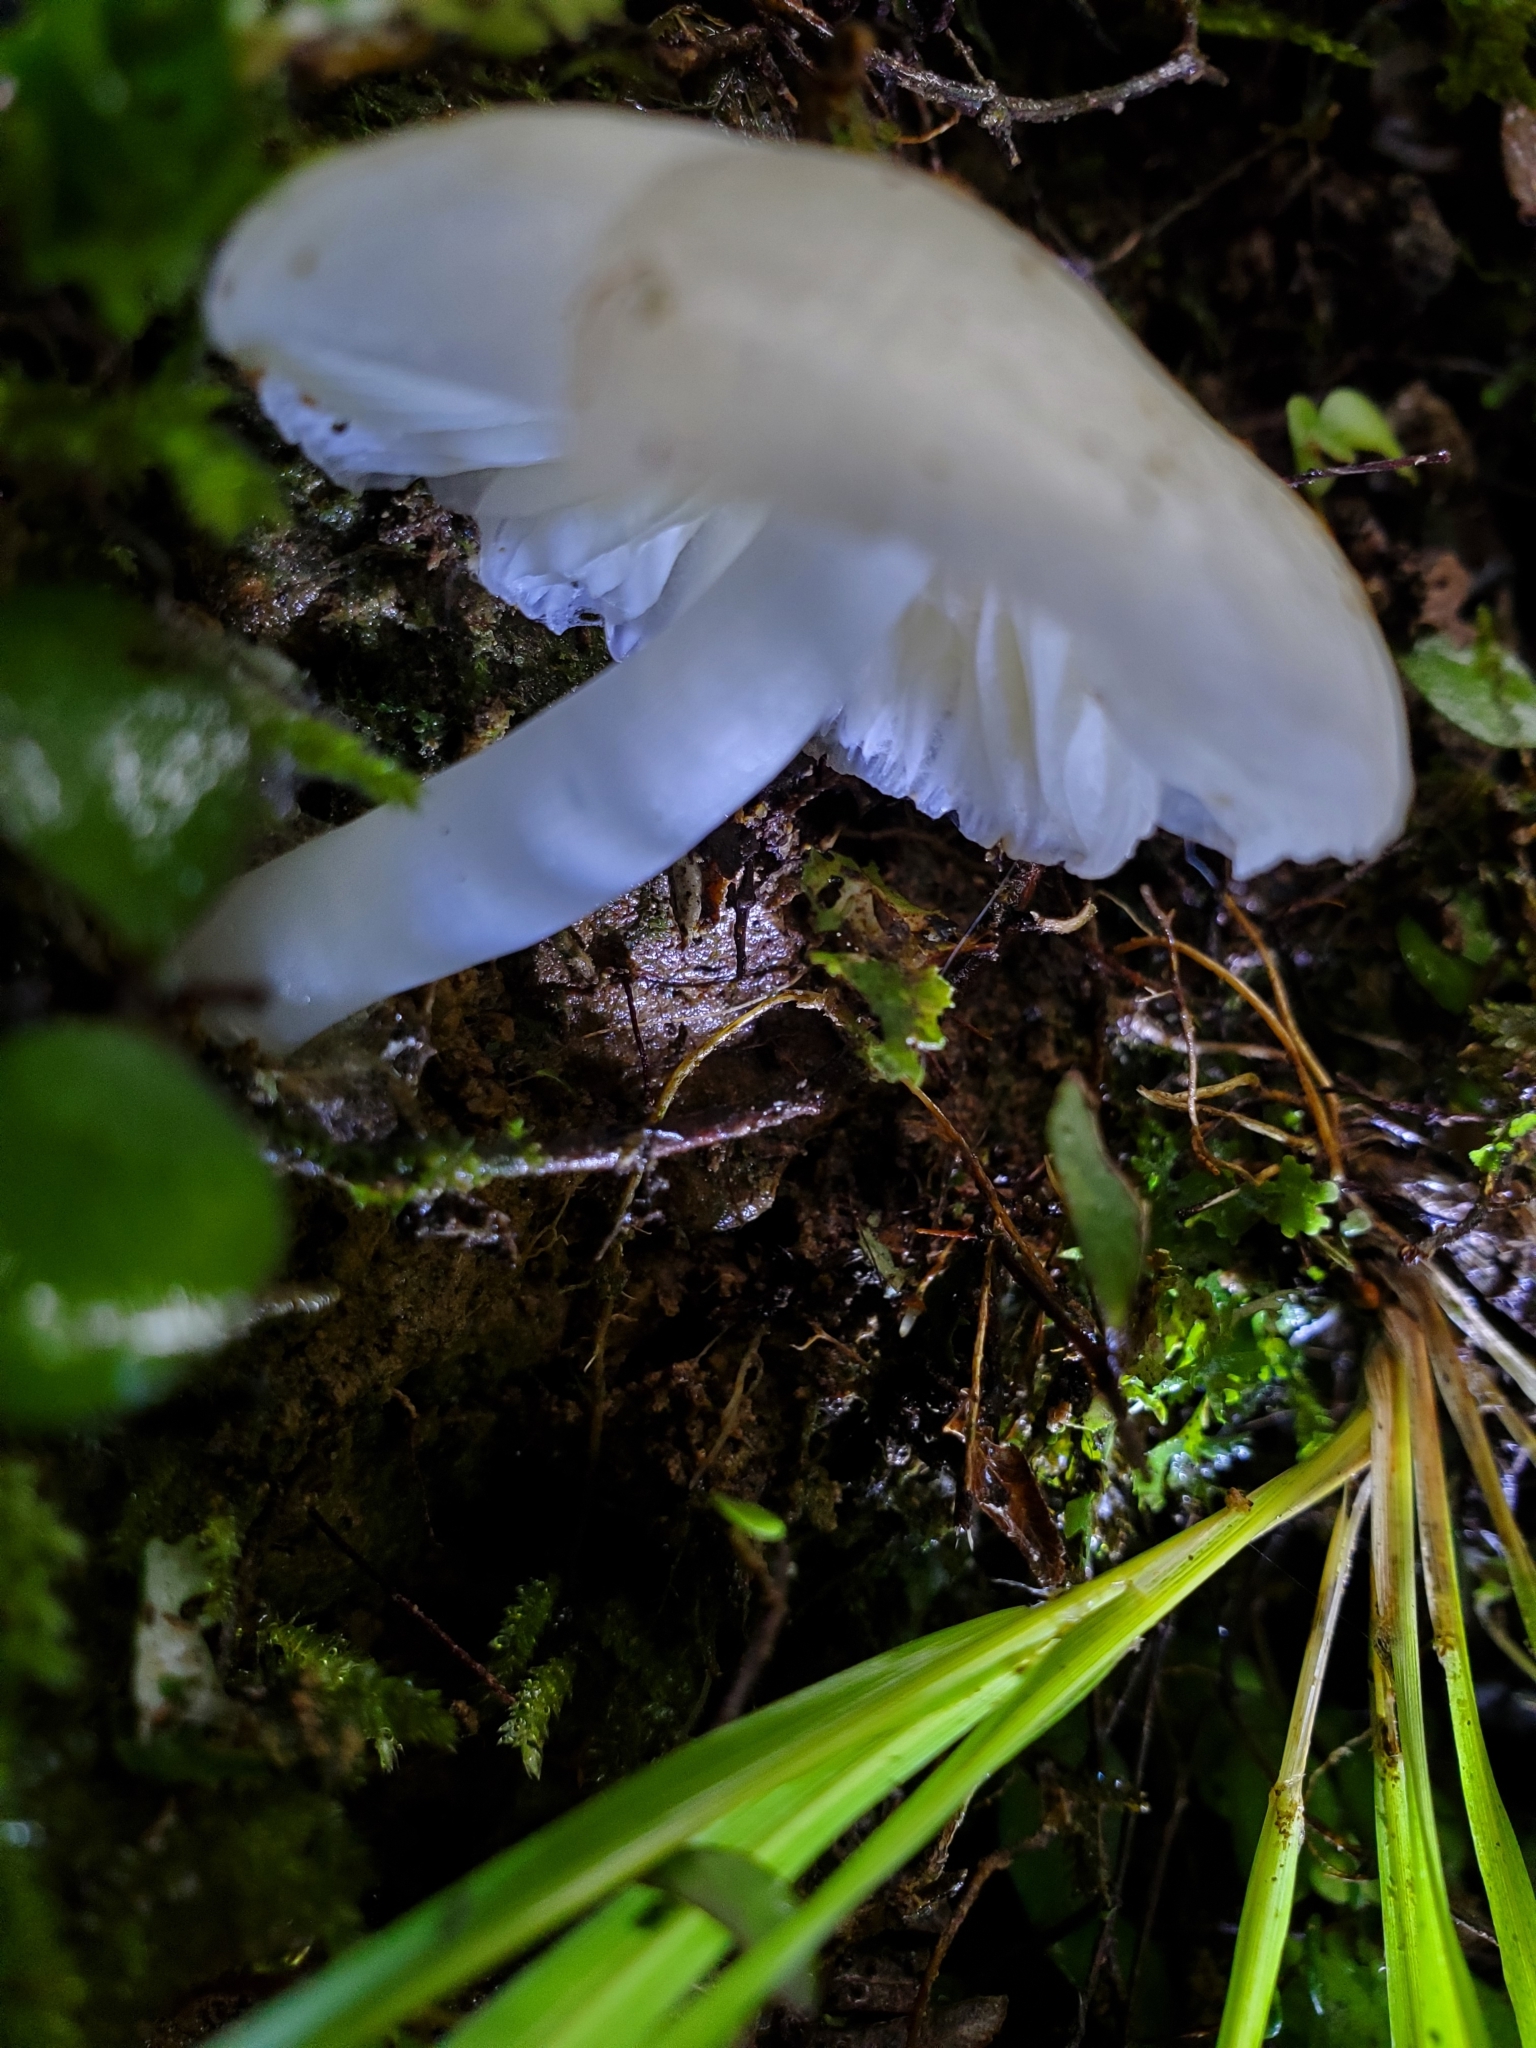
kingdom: Fungi
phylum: Basidiomycota
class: Agaricomycetes
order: Agaricales
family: Hygrophoraceae
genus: Humidicutis
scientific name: Humidicutis mavis
